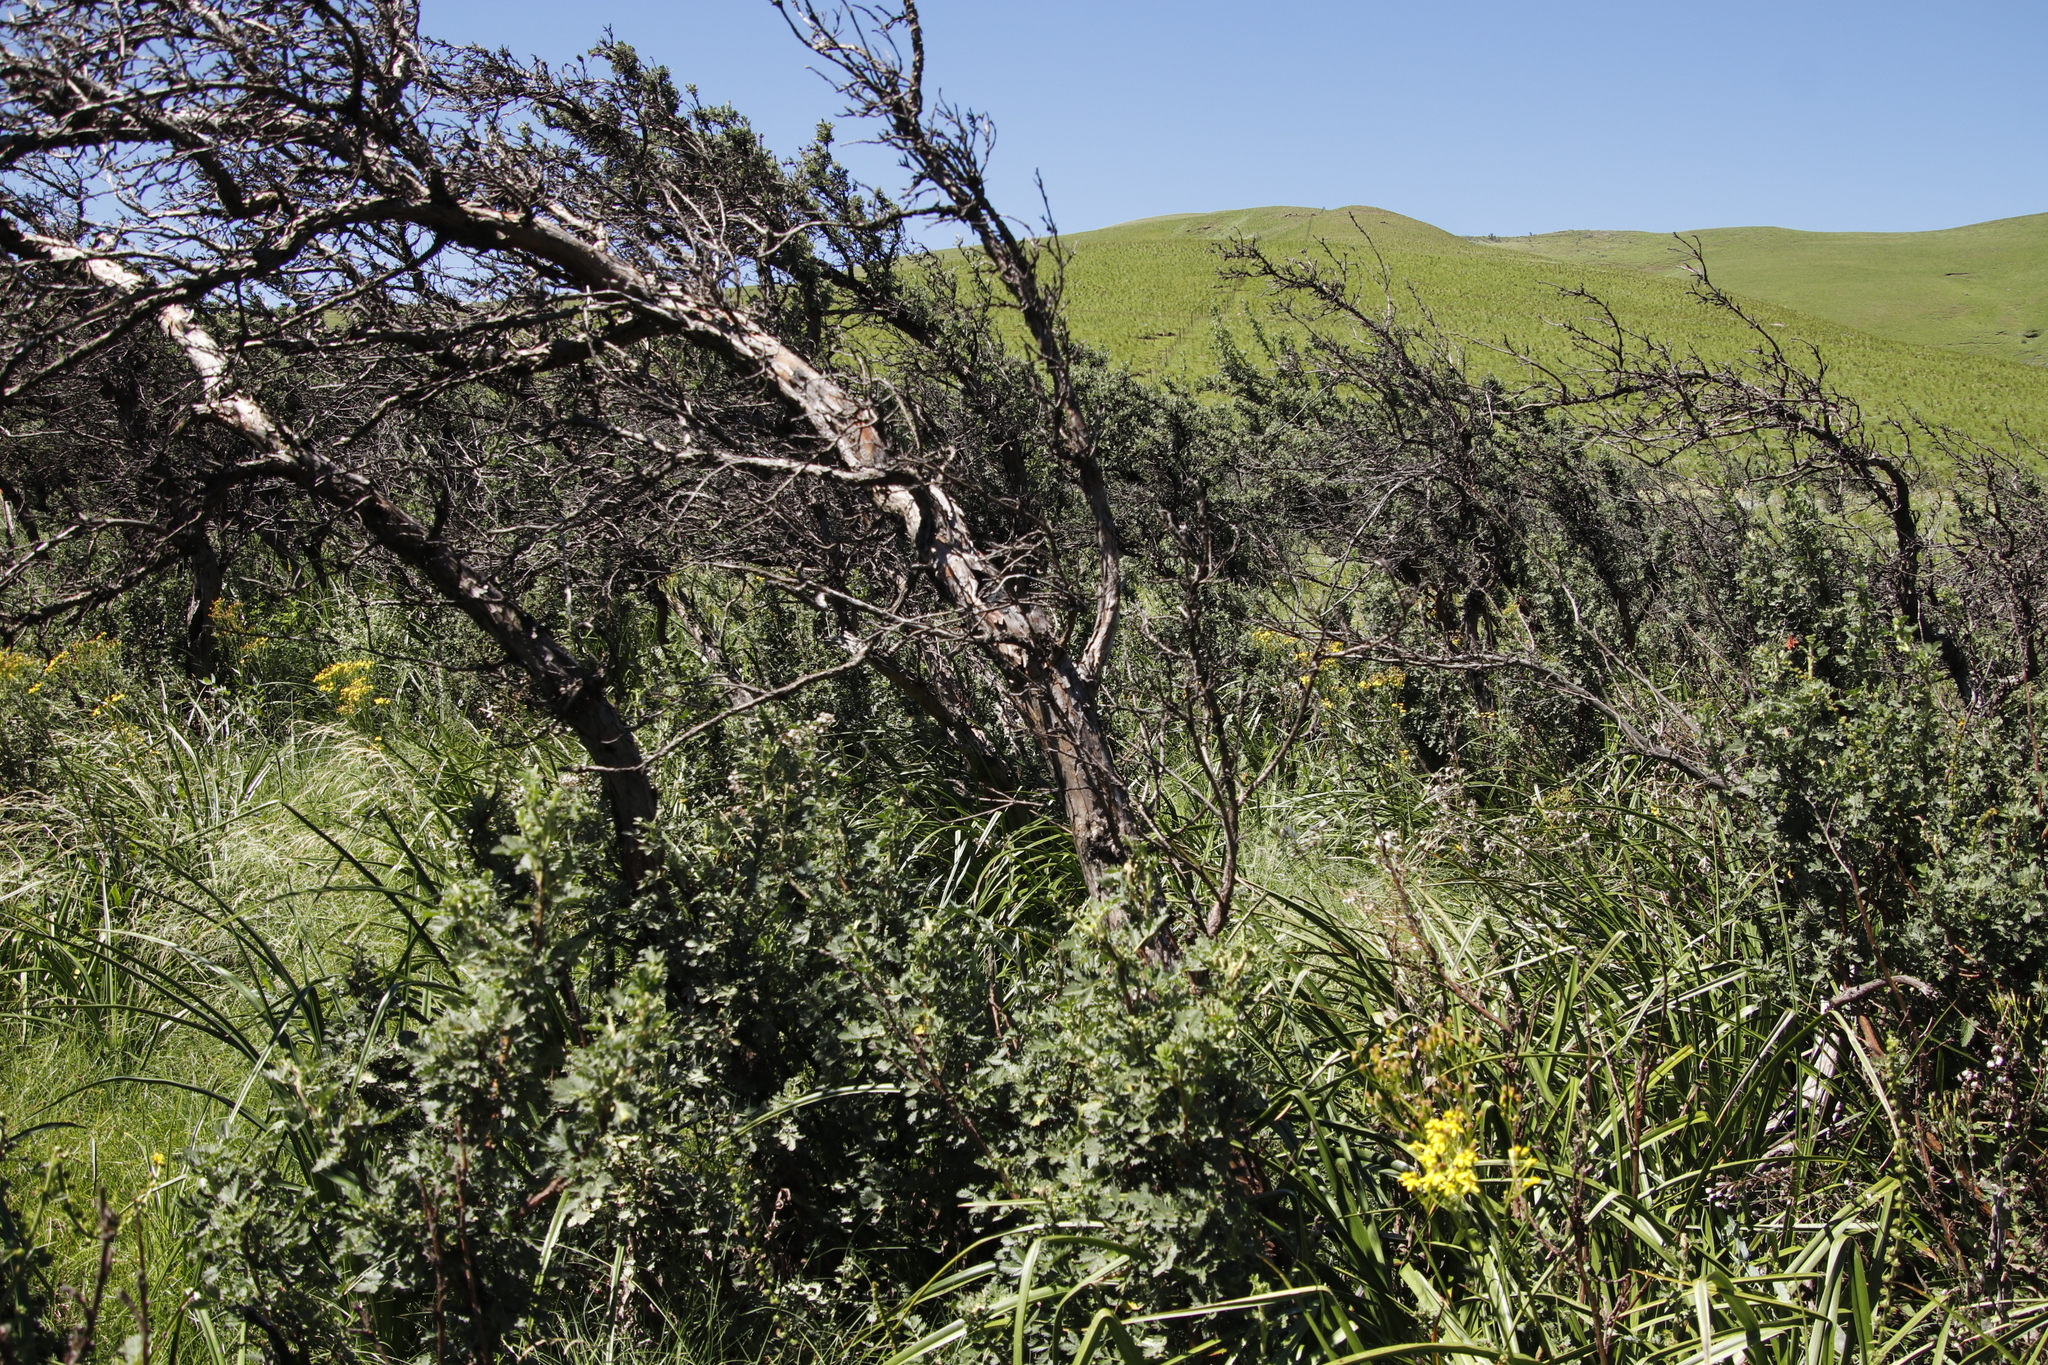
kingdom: Plantae
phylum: Tracheophyta
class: Magnoliopsida
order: Rosales
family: Rosaceae
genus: Leucosidea
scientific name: Leucosidea sericea
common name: Oldwood
